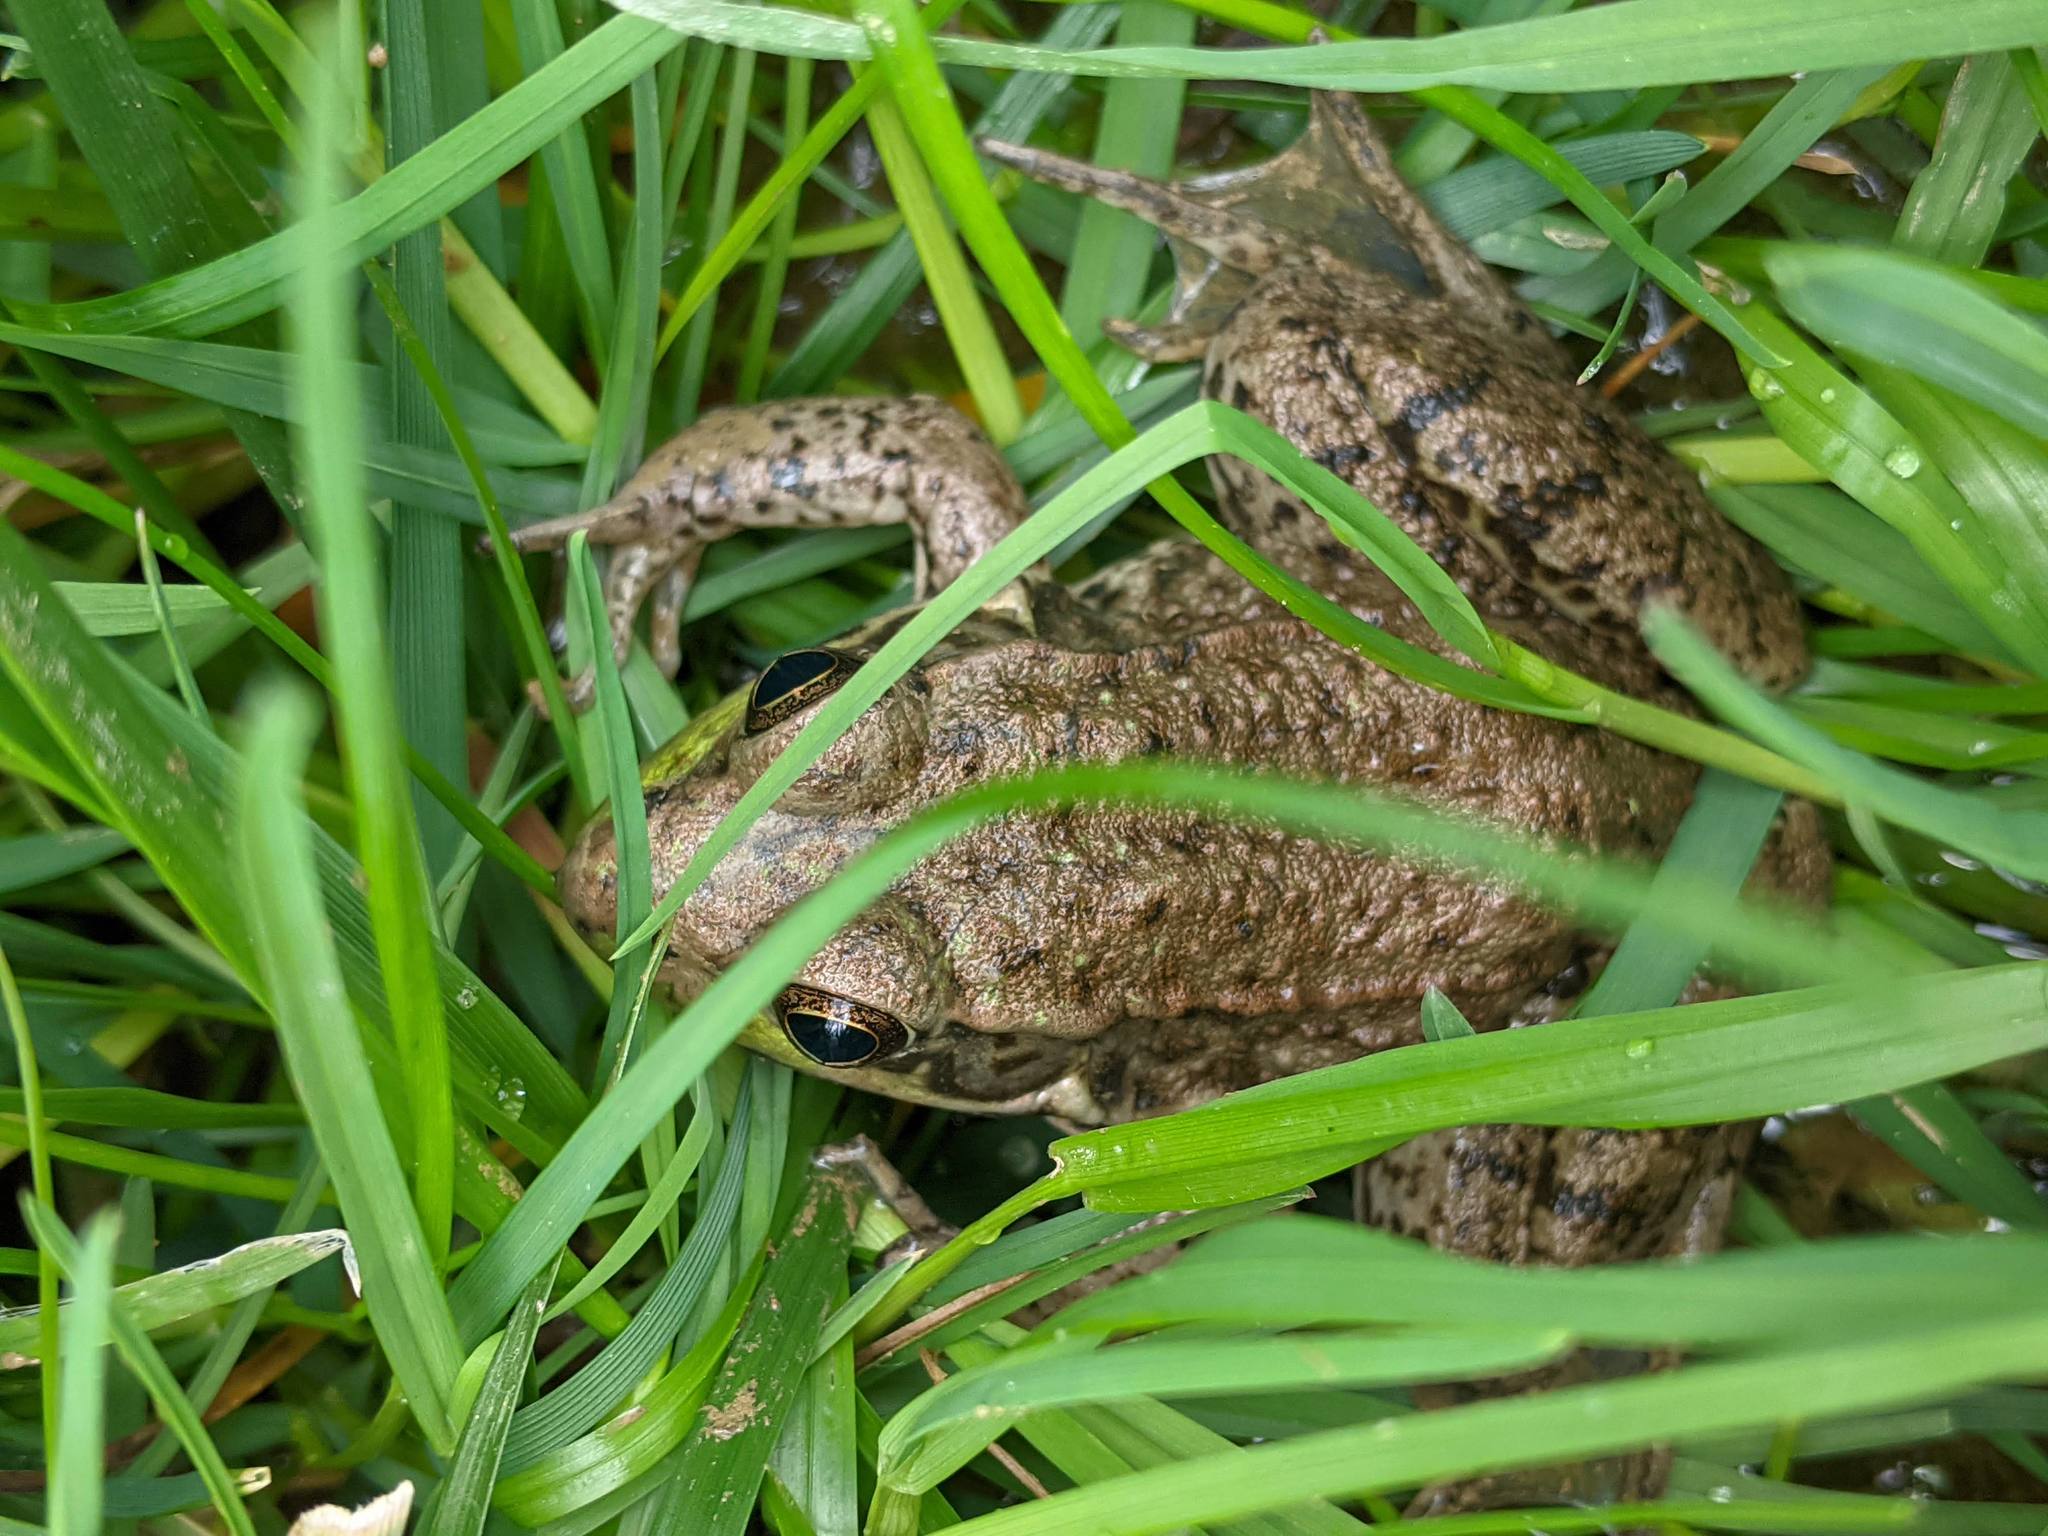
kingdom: Animalia
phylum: Chordata
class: Amphibia
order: Anura
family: Ranidae
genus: Lithobates
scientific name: Lithobates clamitans
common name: Green frog
